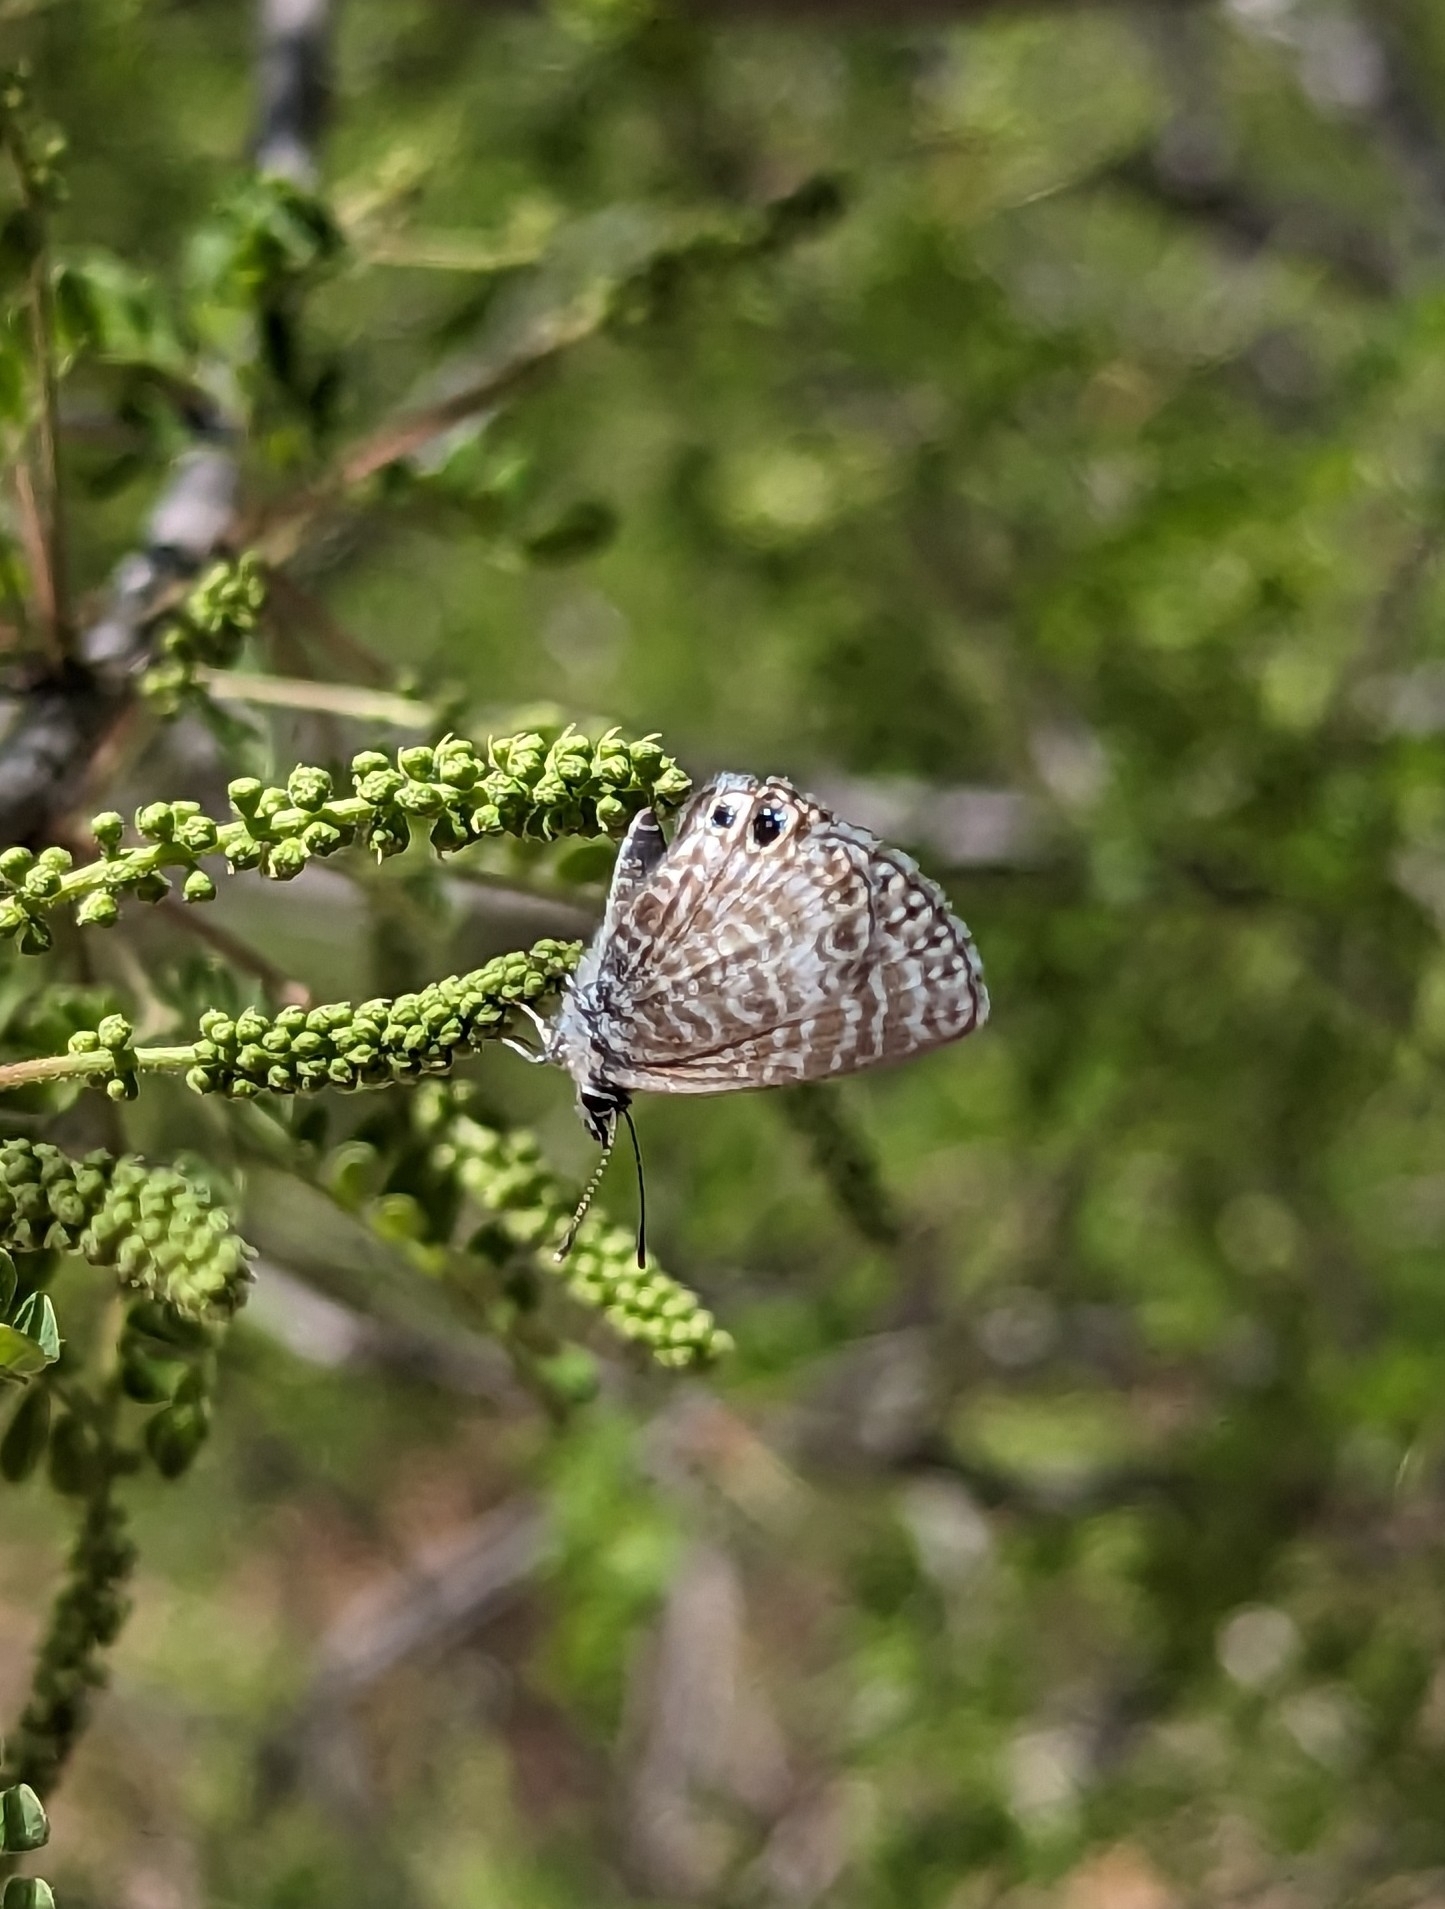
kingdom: Animalia
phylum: Arthropoda
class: Insecta
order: Lepidoptera
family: Lycaenidae
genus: Leptotes
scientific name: Leptotes marina
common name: Marine blue
